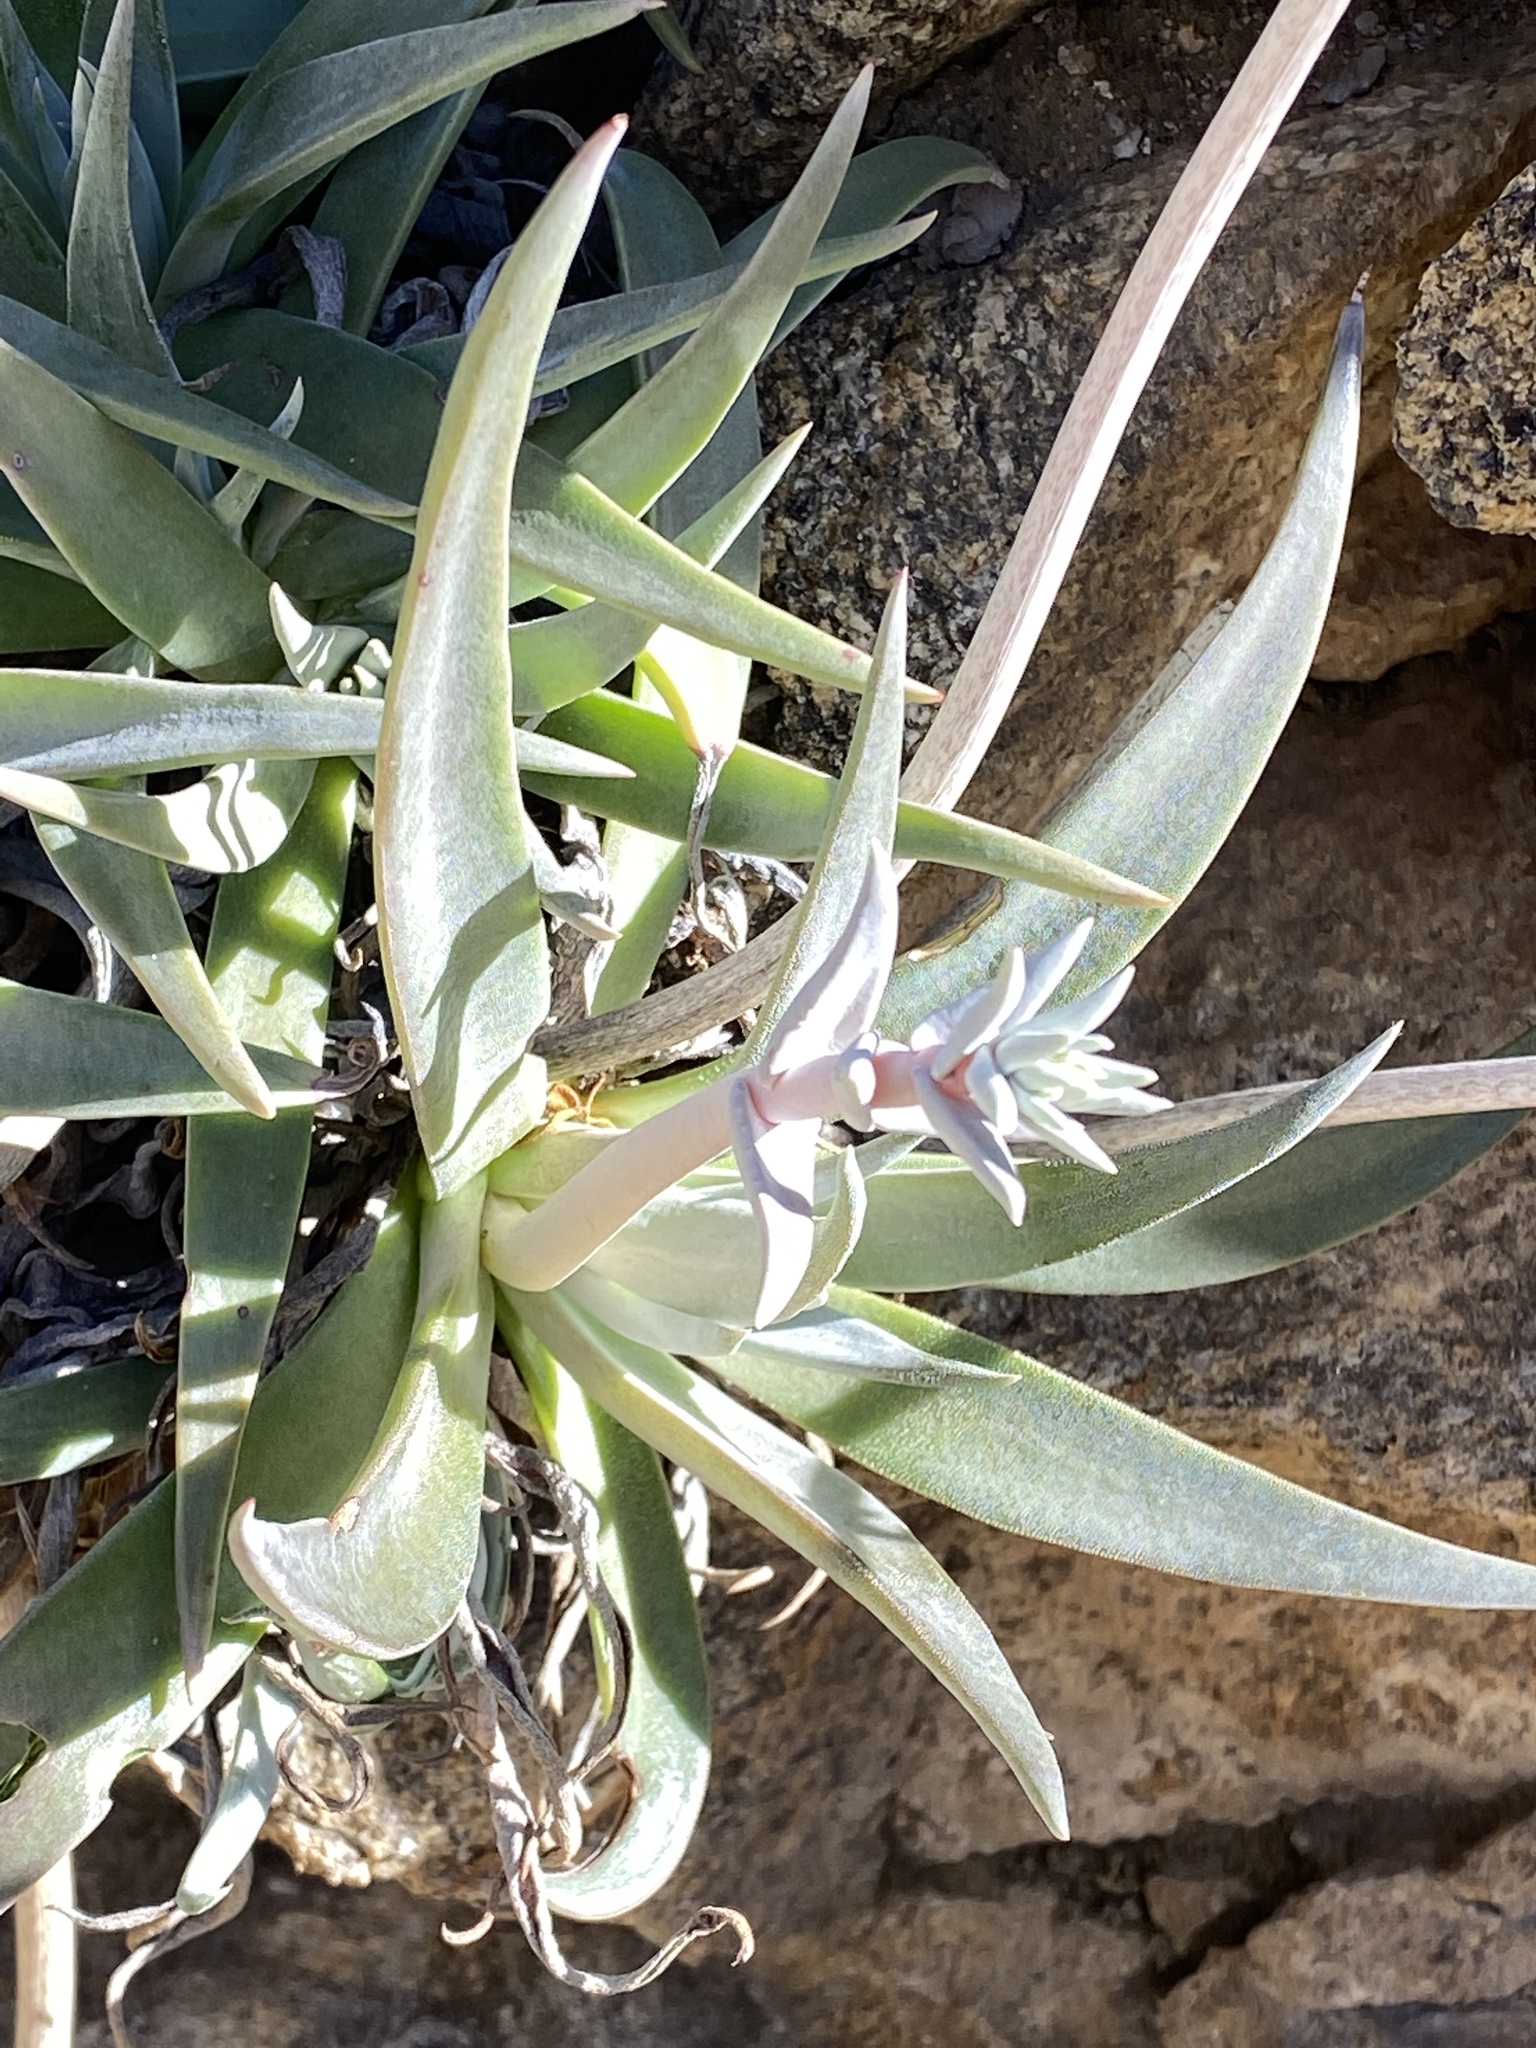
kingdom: Plantae
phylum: Tracheophyta
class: Magnoliopsida
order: Saxifragales
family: Crassulaceae
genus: Dudleya
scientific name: Dudleya saxosa
